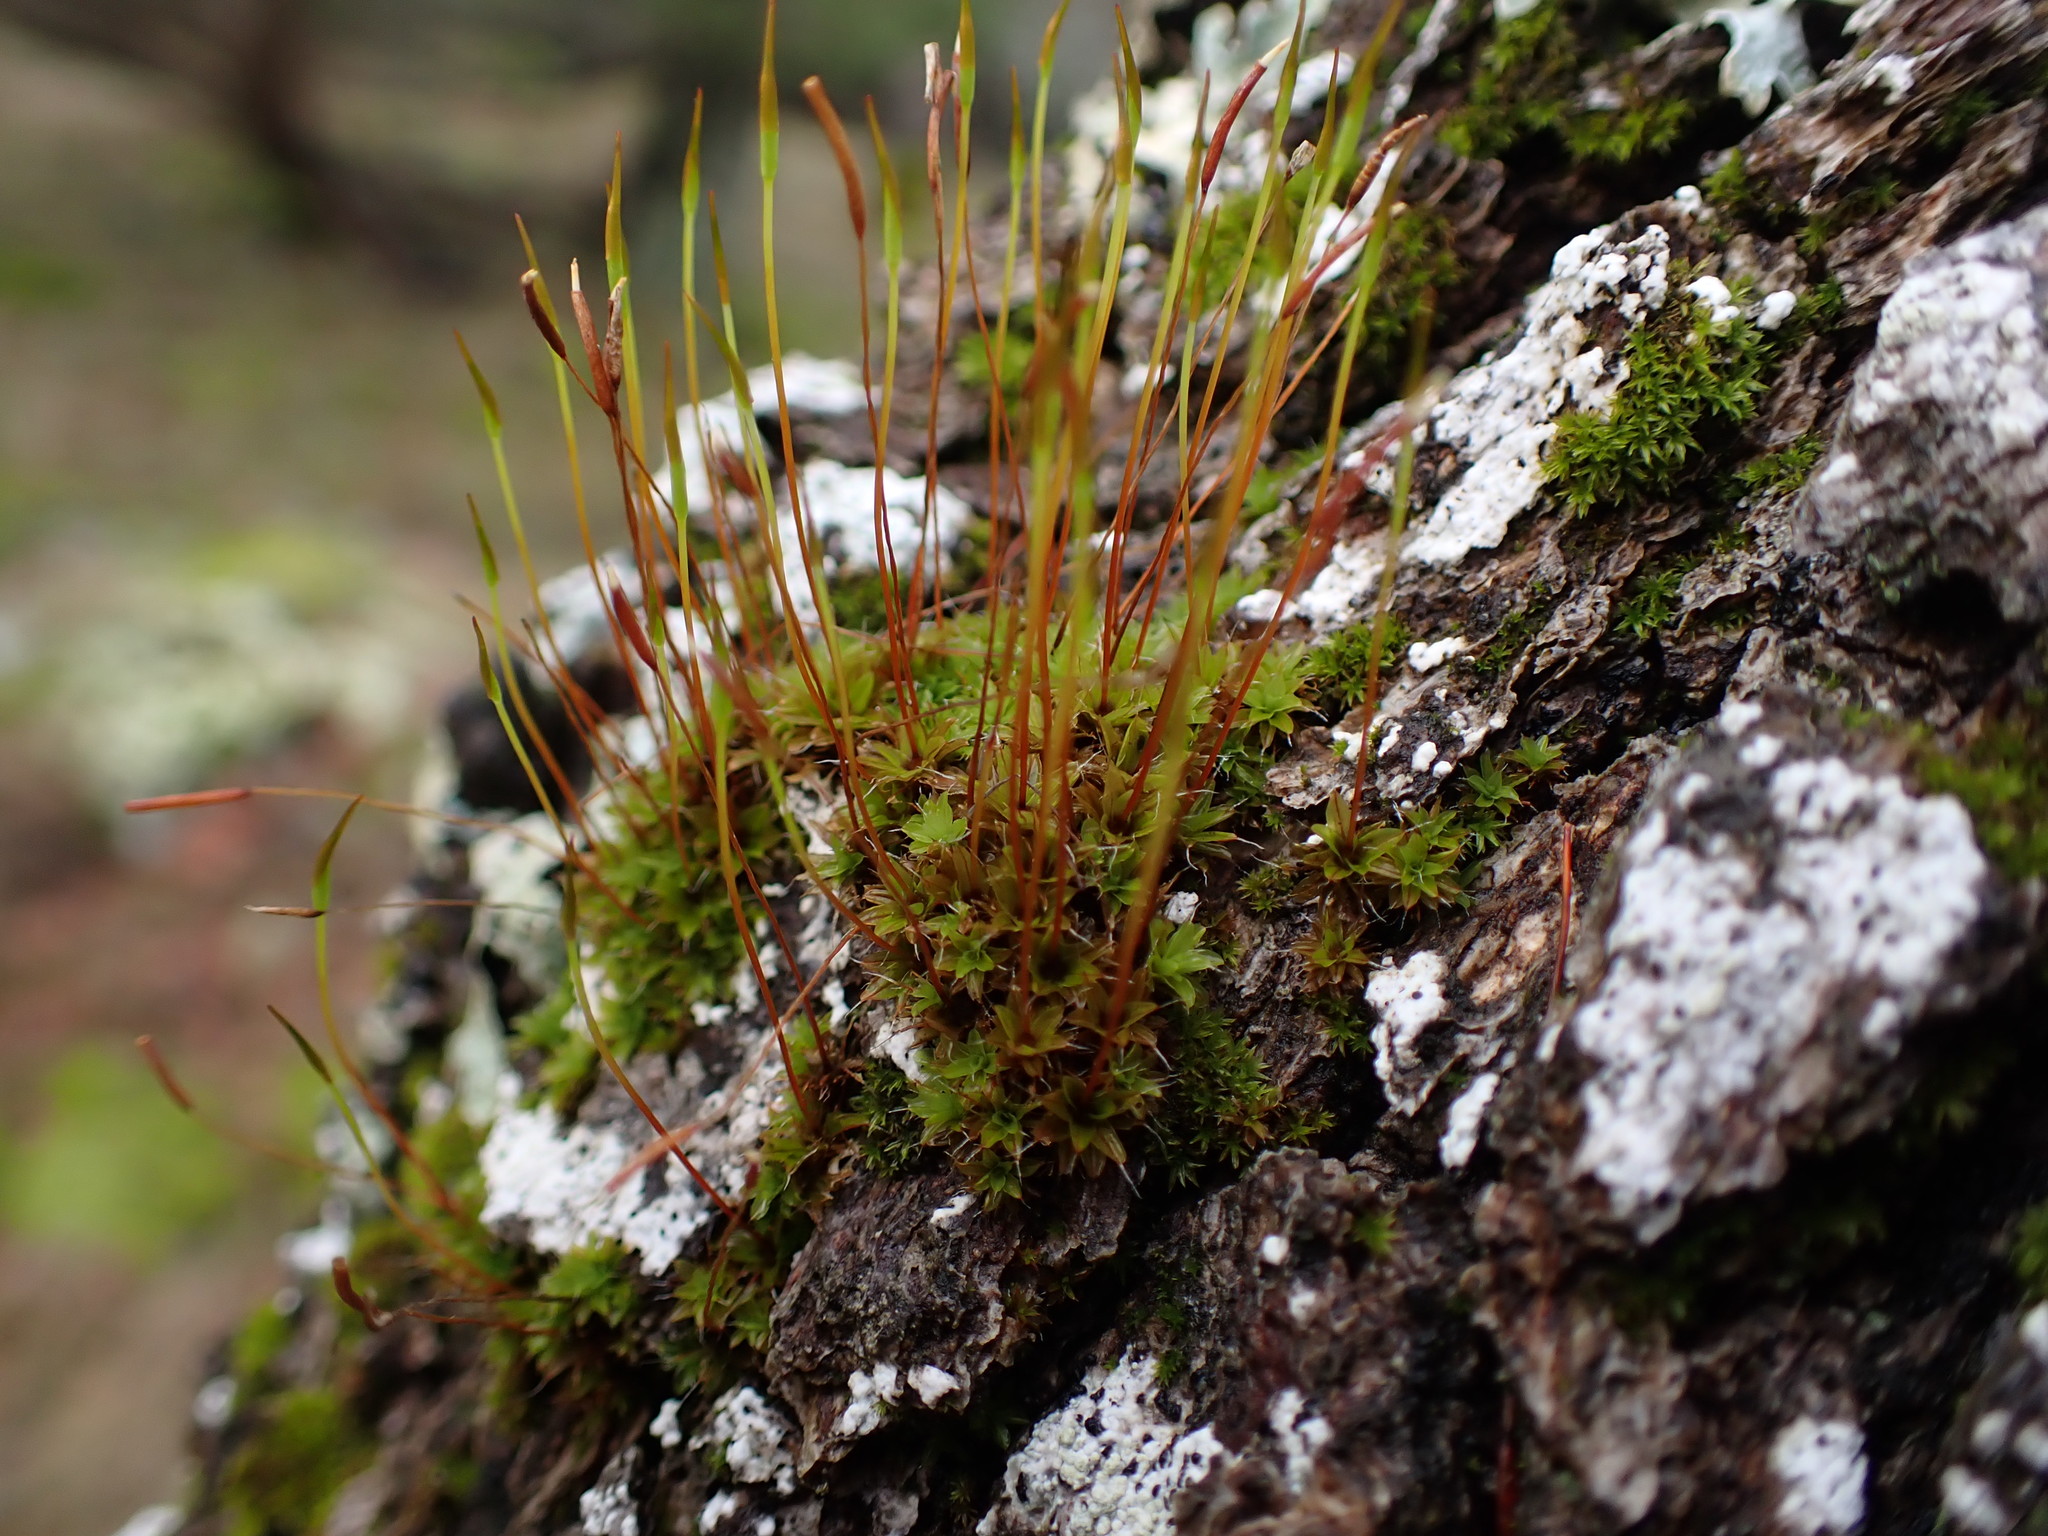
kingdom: Plantae
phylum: Bryophyta
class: Bryopsida
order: Pottiales
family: Pottiaceae
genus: Syntrichia
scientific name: Syntrichia princeps
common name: Brown screw-moss
